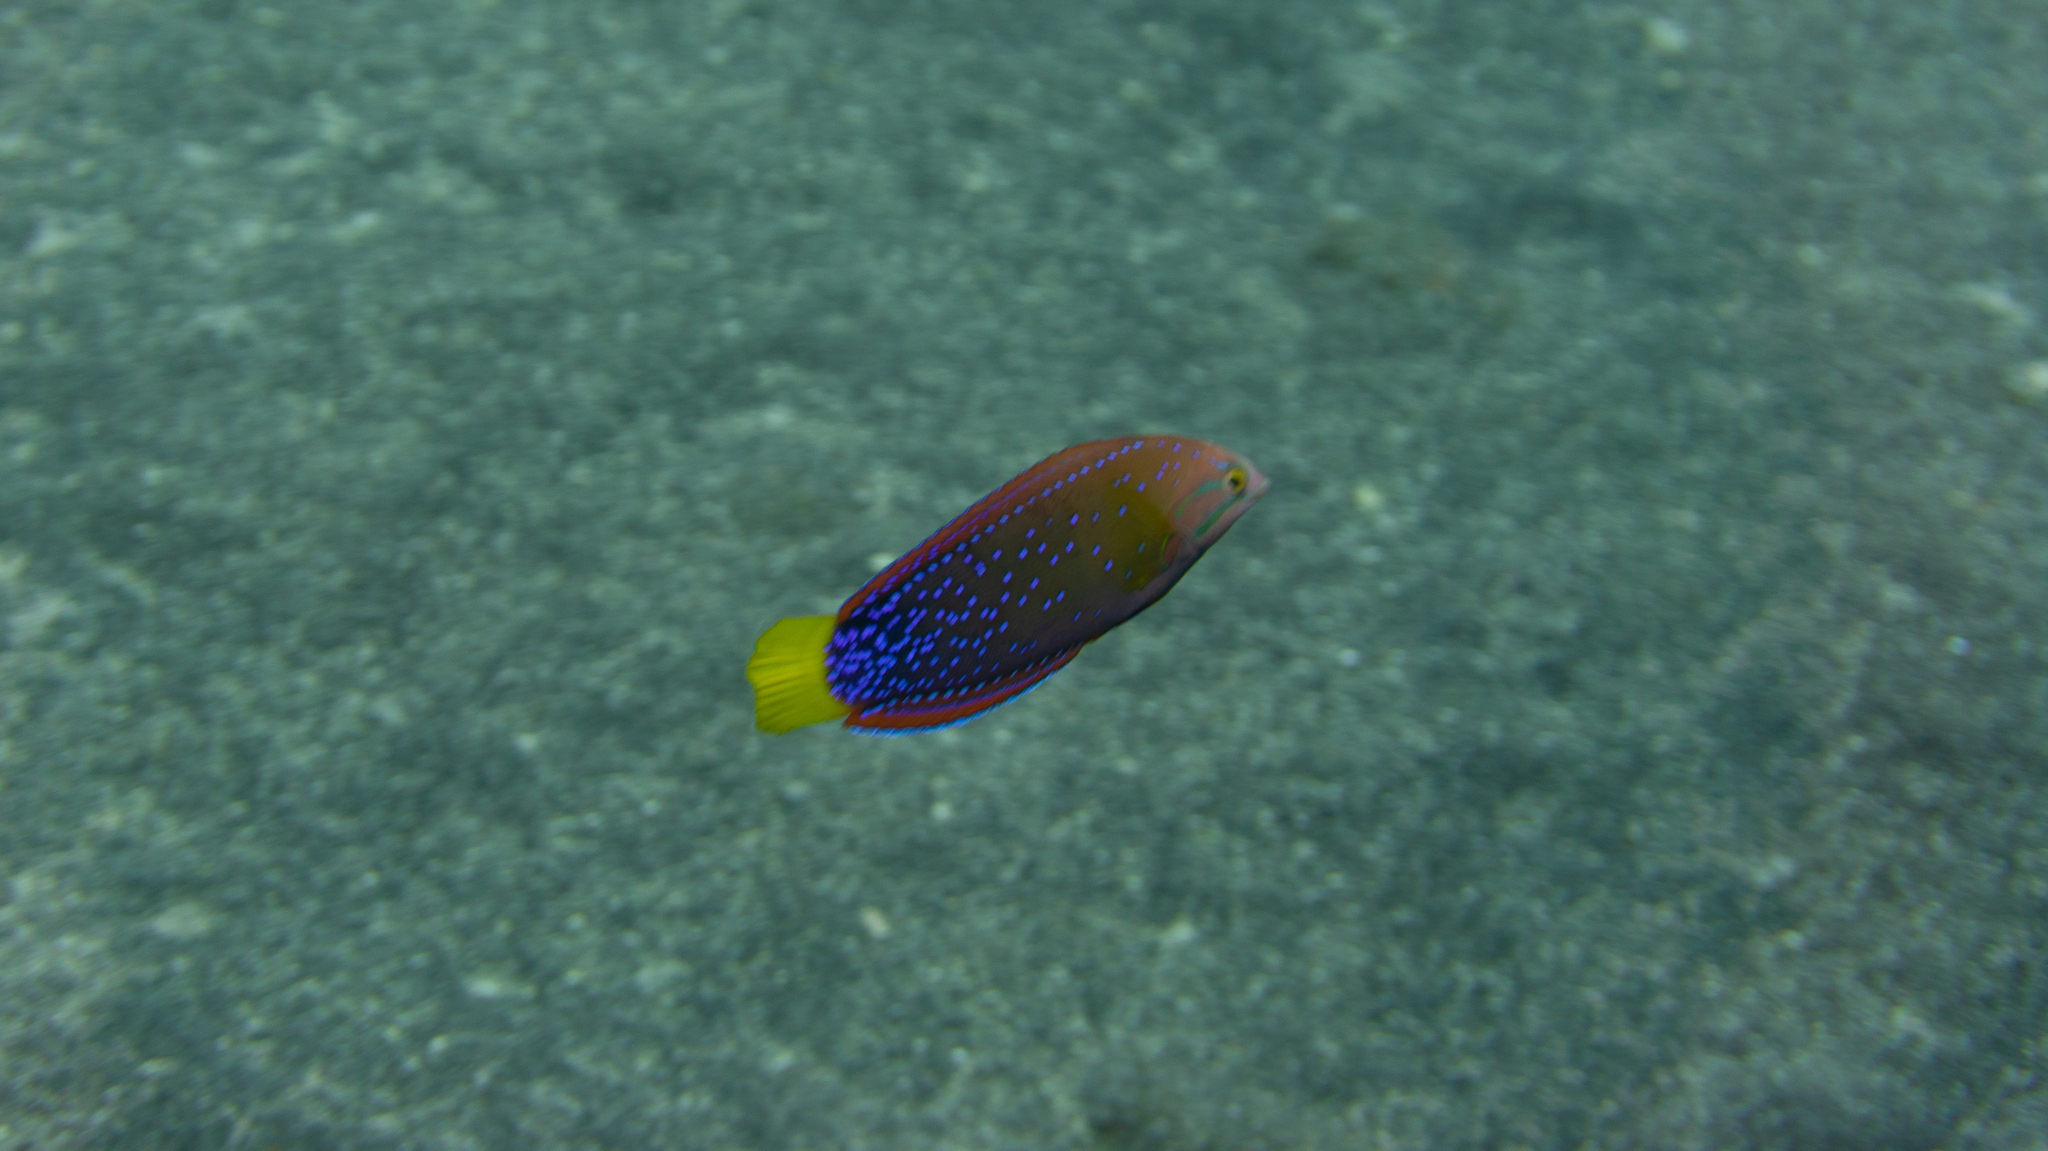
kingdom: Animalia
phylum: Chordata
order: Perciformes
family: Labridae
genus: Coris
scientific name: Coris gaimard
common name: Yellowtail coris
